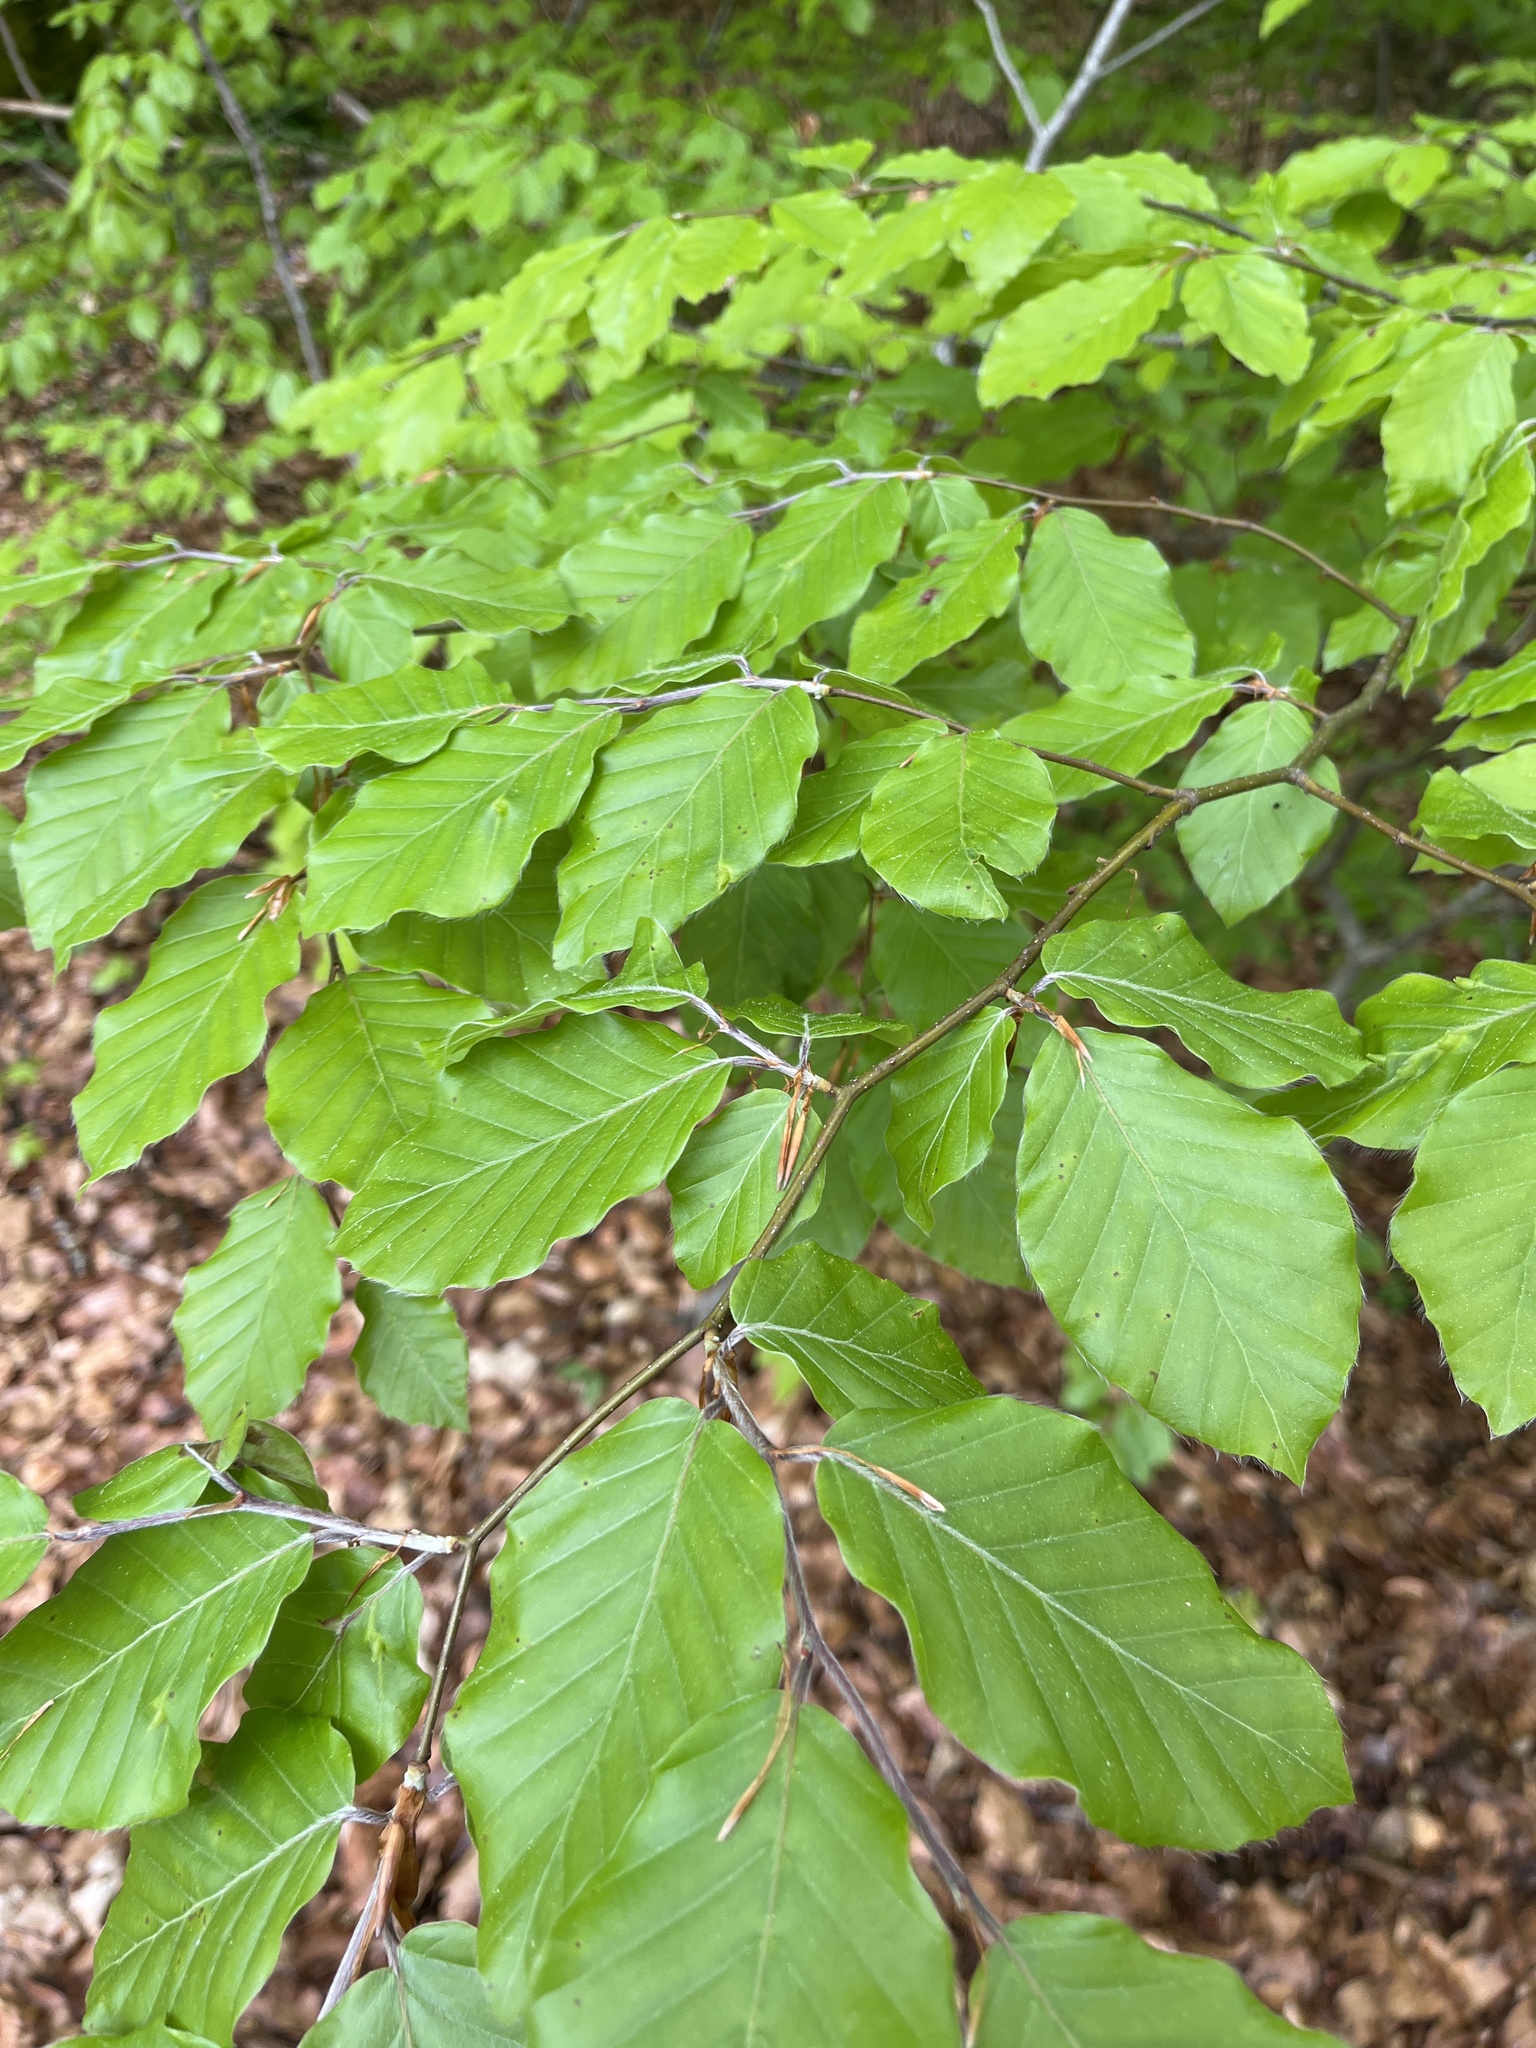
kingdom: Plantae
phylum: Tracheophyta
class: Magnoliopsida
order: Fagales
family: Fagaceae
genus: Fagus
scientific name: Fagus sylvatica
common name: Beech
